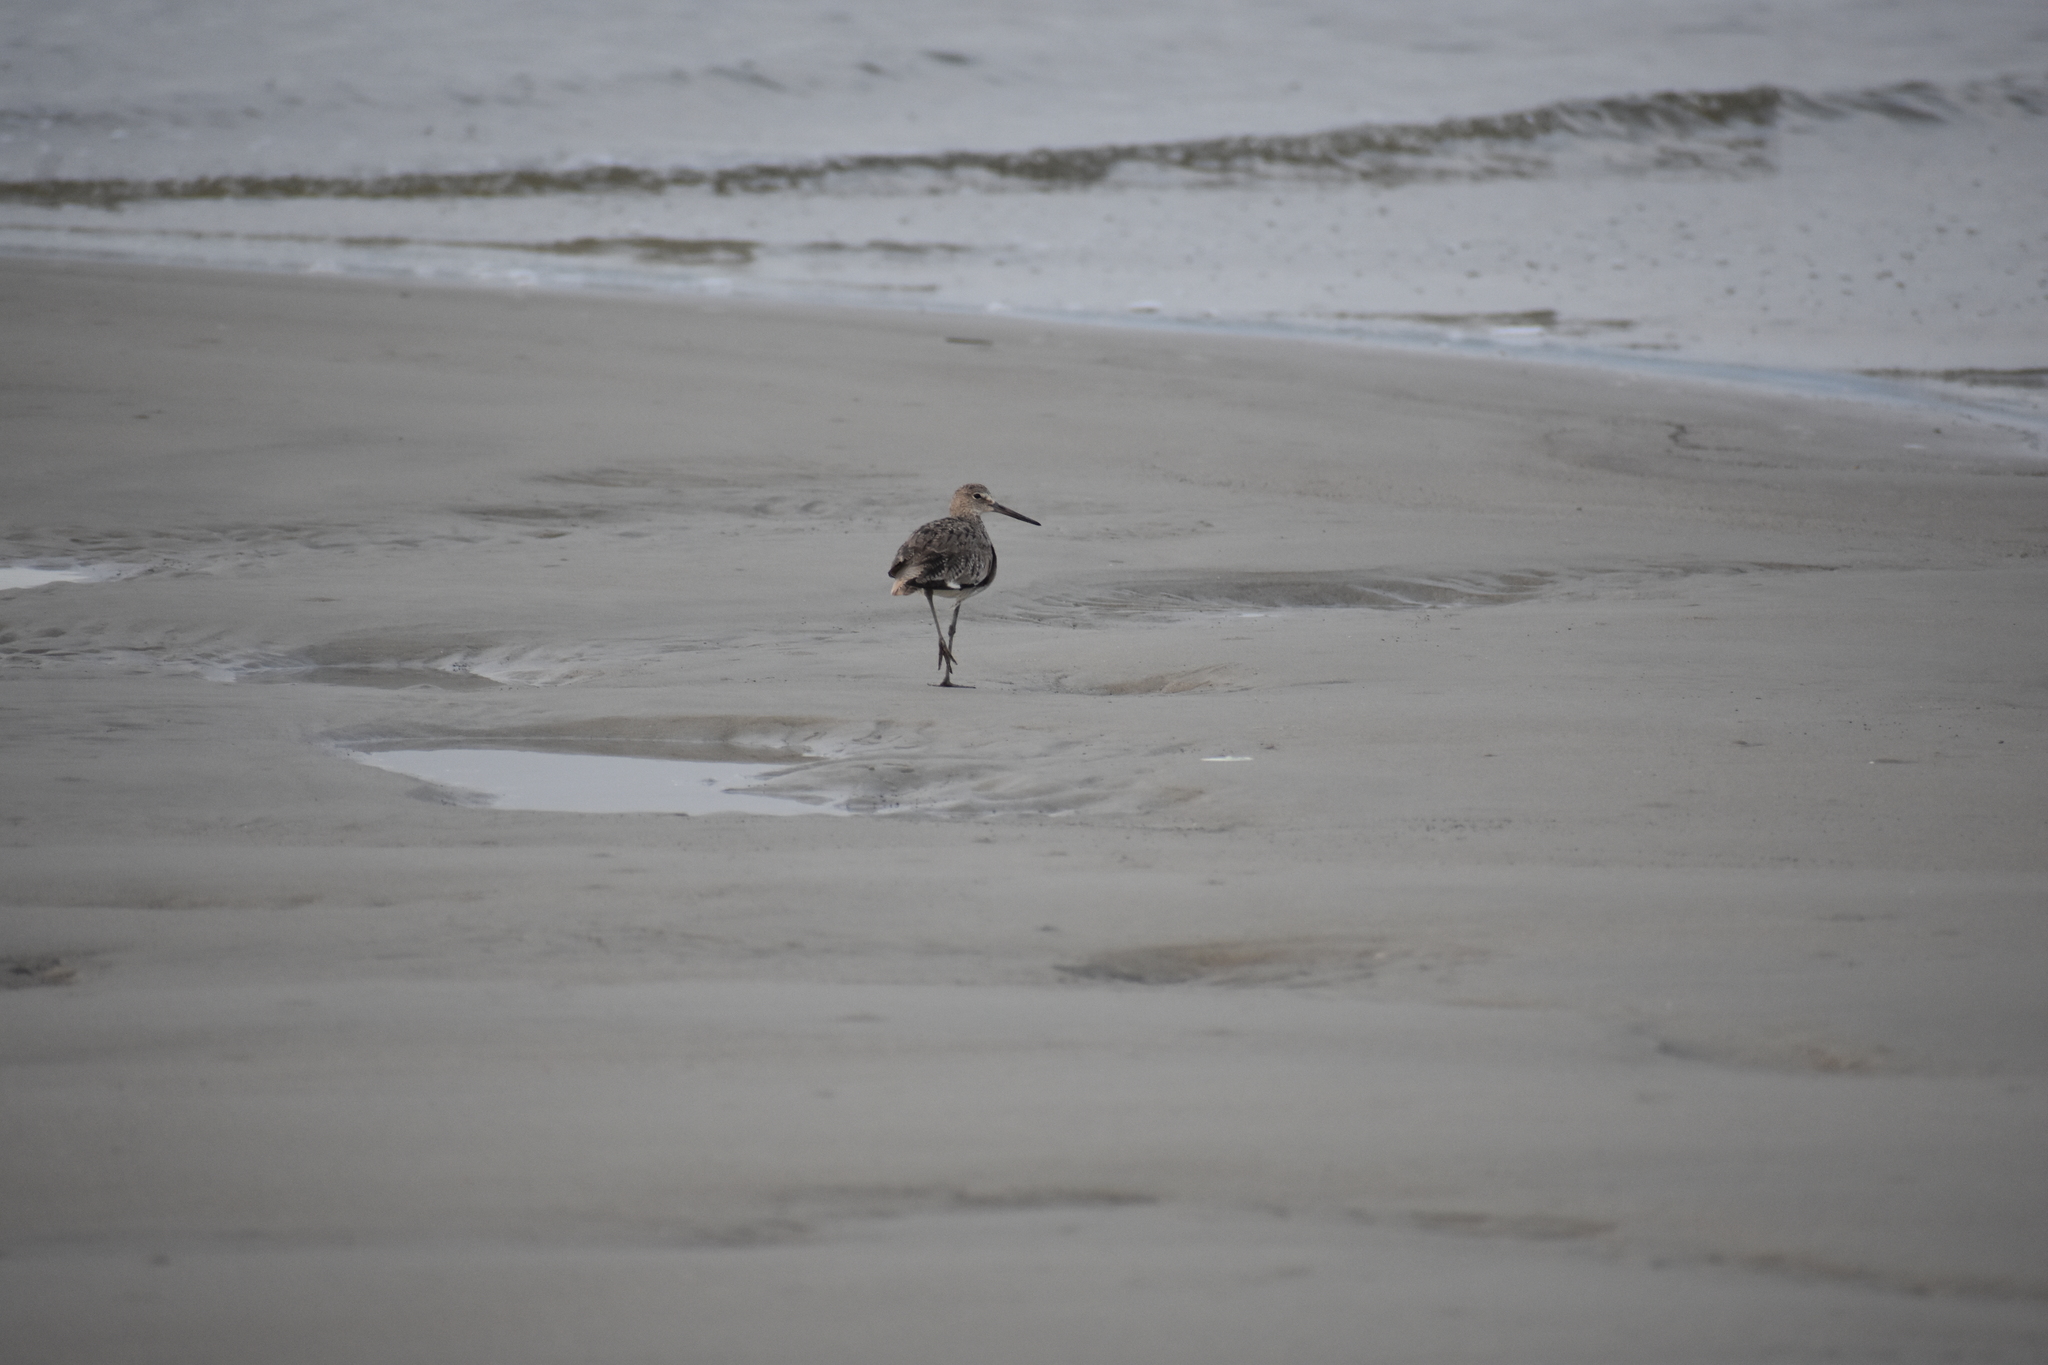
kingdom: Animalia
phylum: Chordata
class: Aves
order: Charadriiformes
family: Scolopacidae
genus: Tringa
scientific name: Tringa semipalmata
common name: Willet
